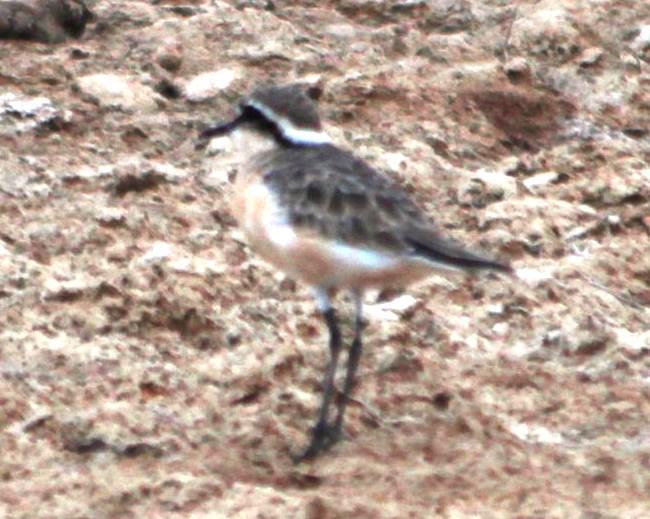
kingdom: Animalia
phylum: Chordata
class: Aves
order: Charadriiformes
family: Charadriidae
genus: Anarhynchus
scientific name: Anarhynchus
